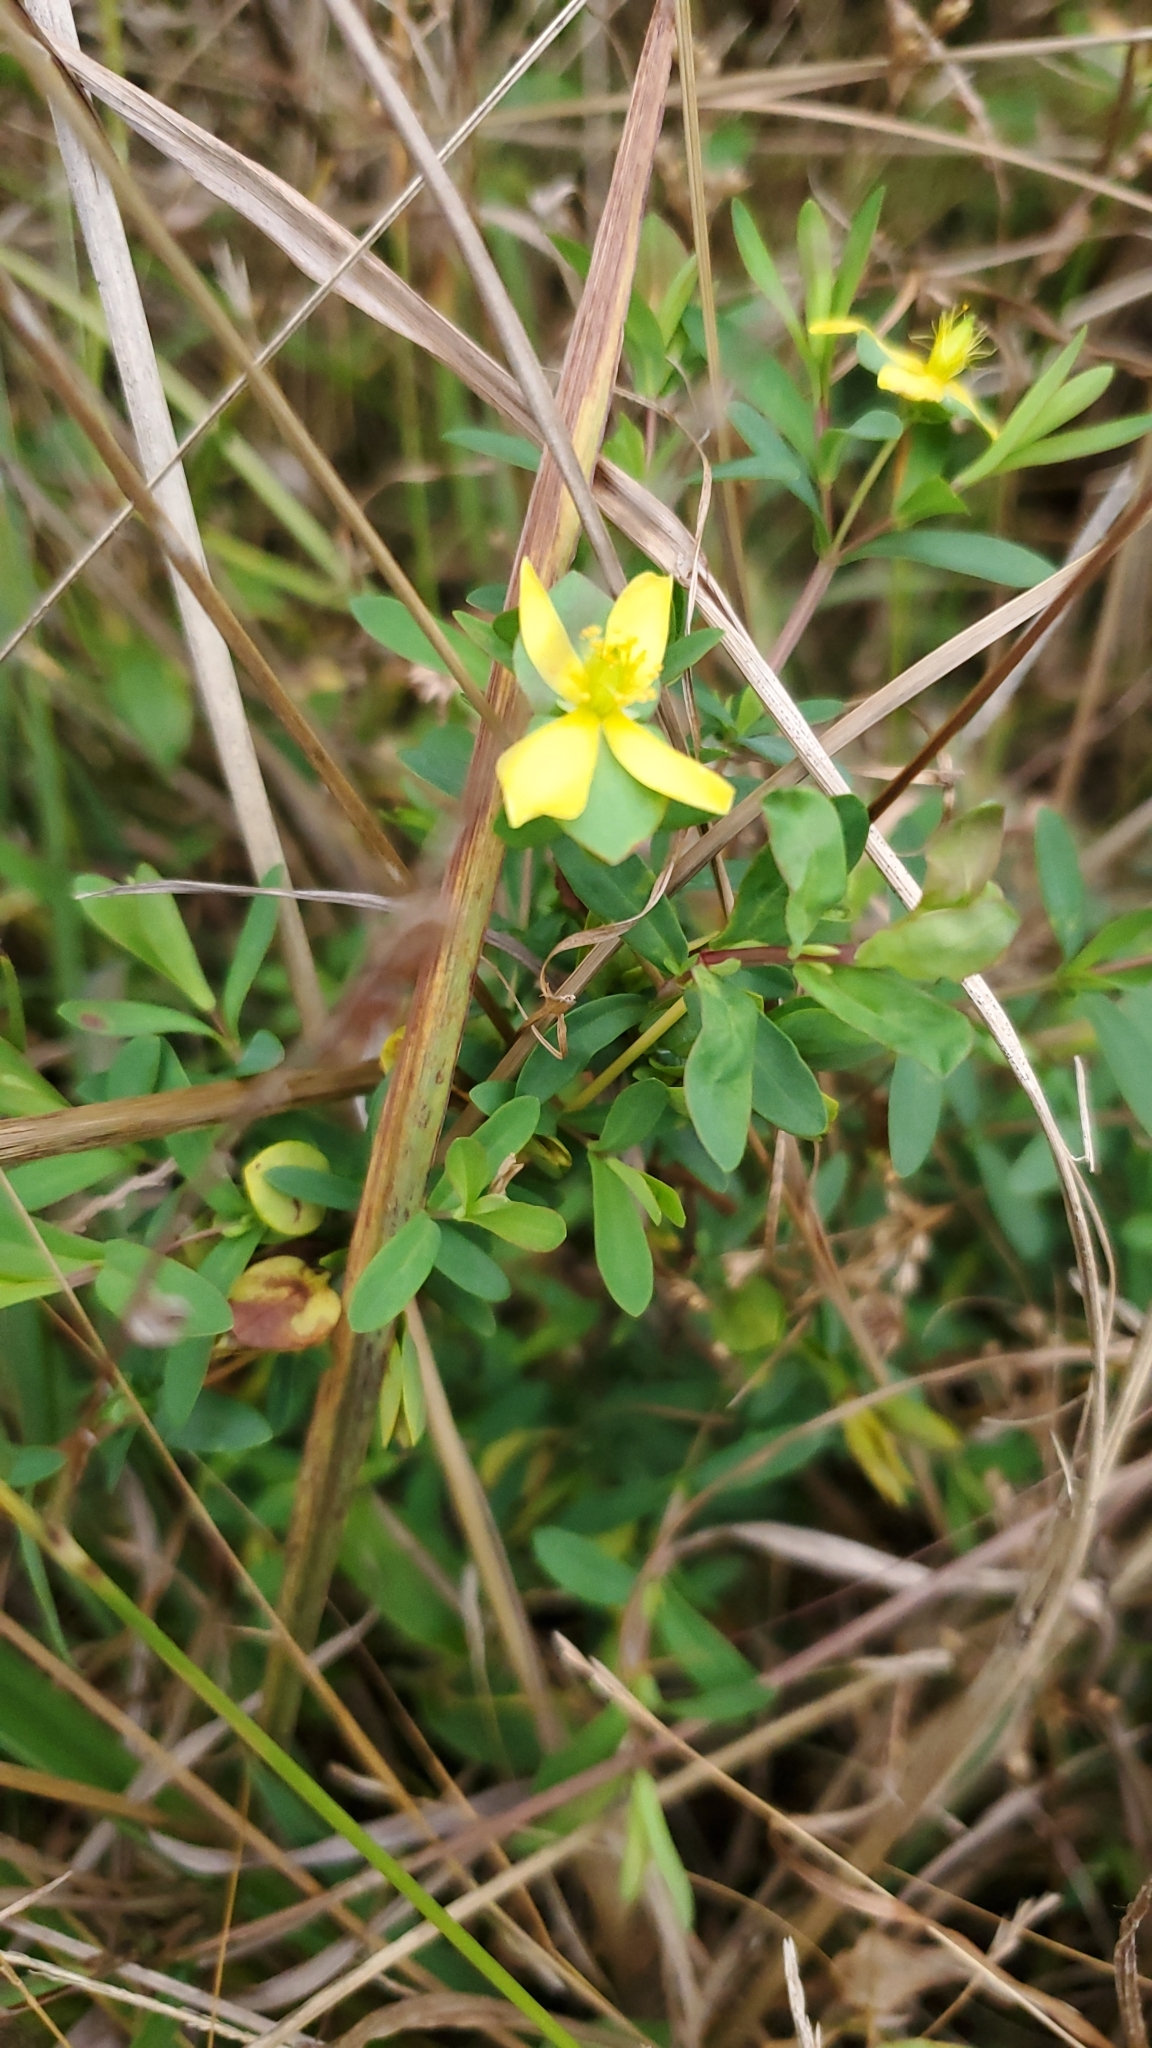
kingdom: Plantae
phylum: Tracheophyta
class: Magnoliopsida
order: Malpighiales
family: Hypericaceae
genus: Hypericum
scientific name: Hypericum hypericoides
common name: St. andrew's cross
